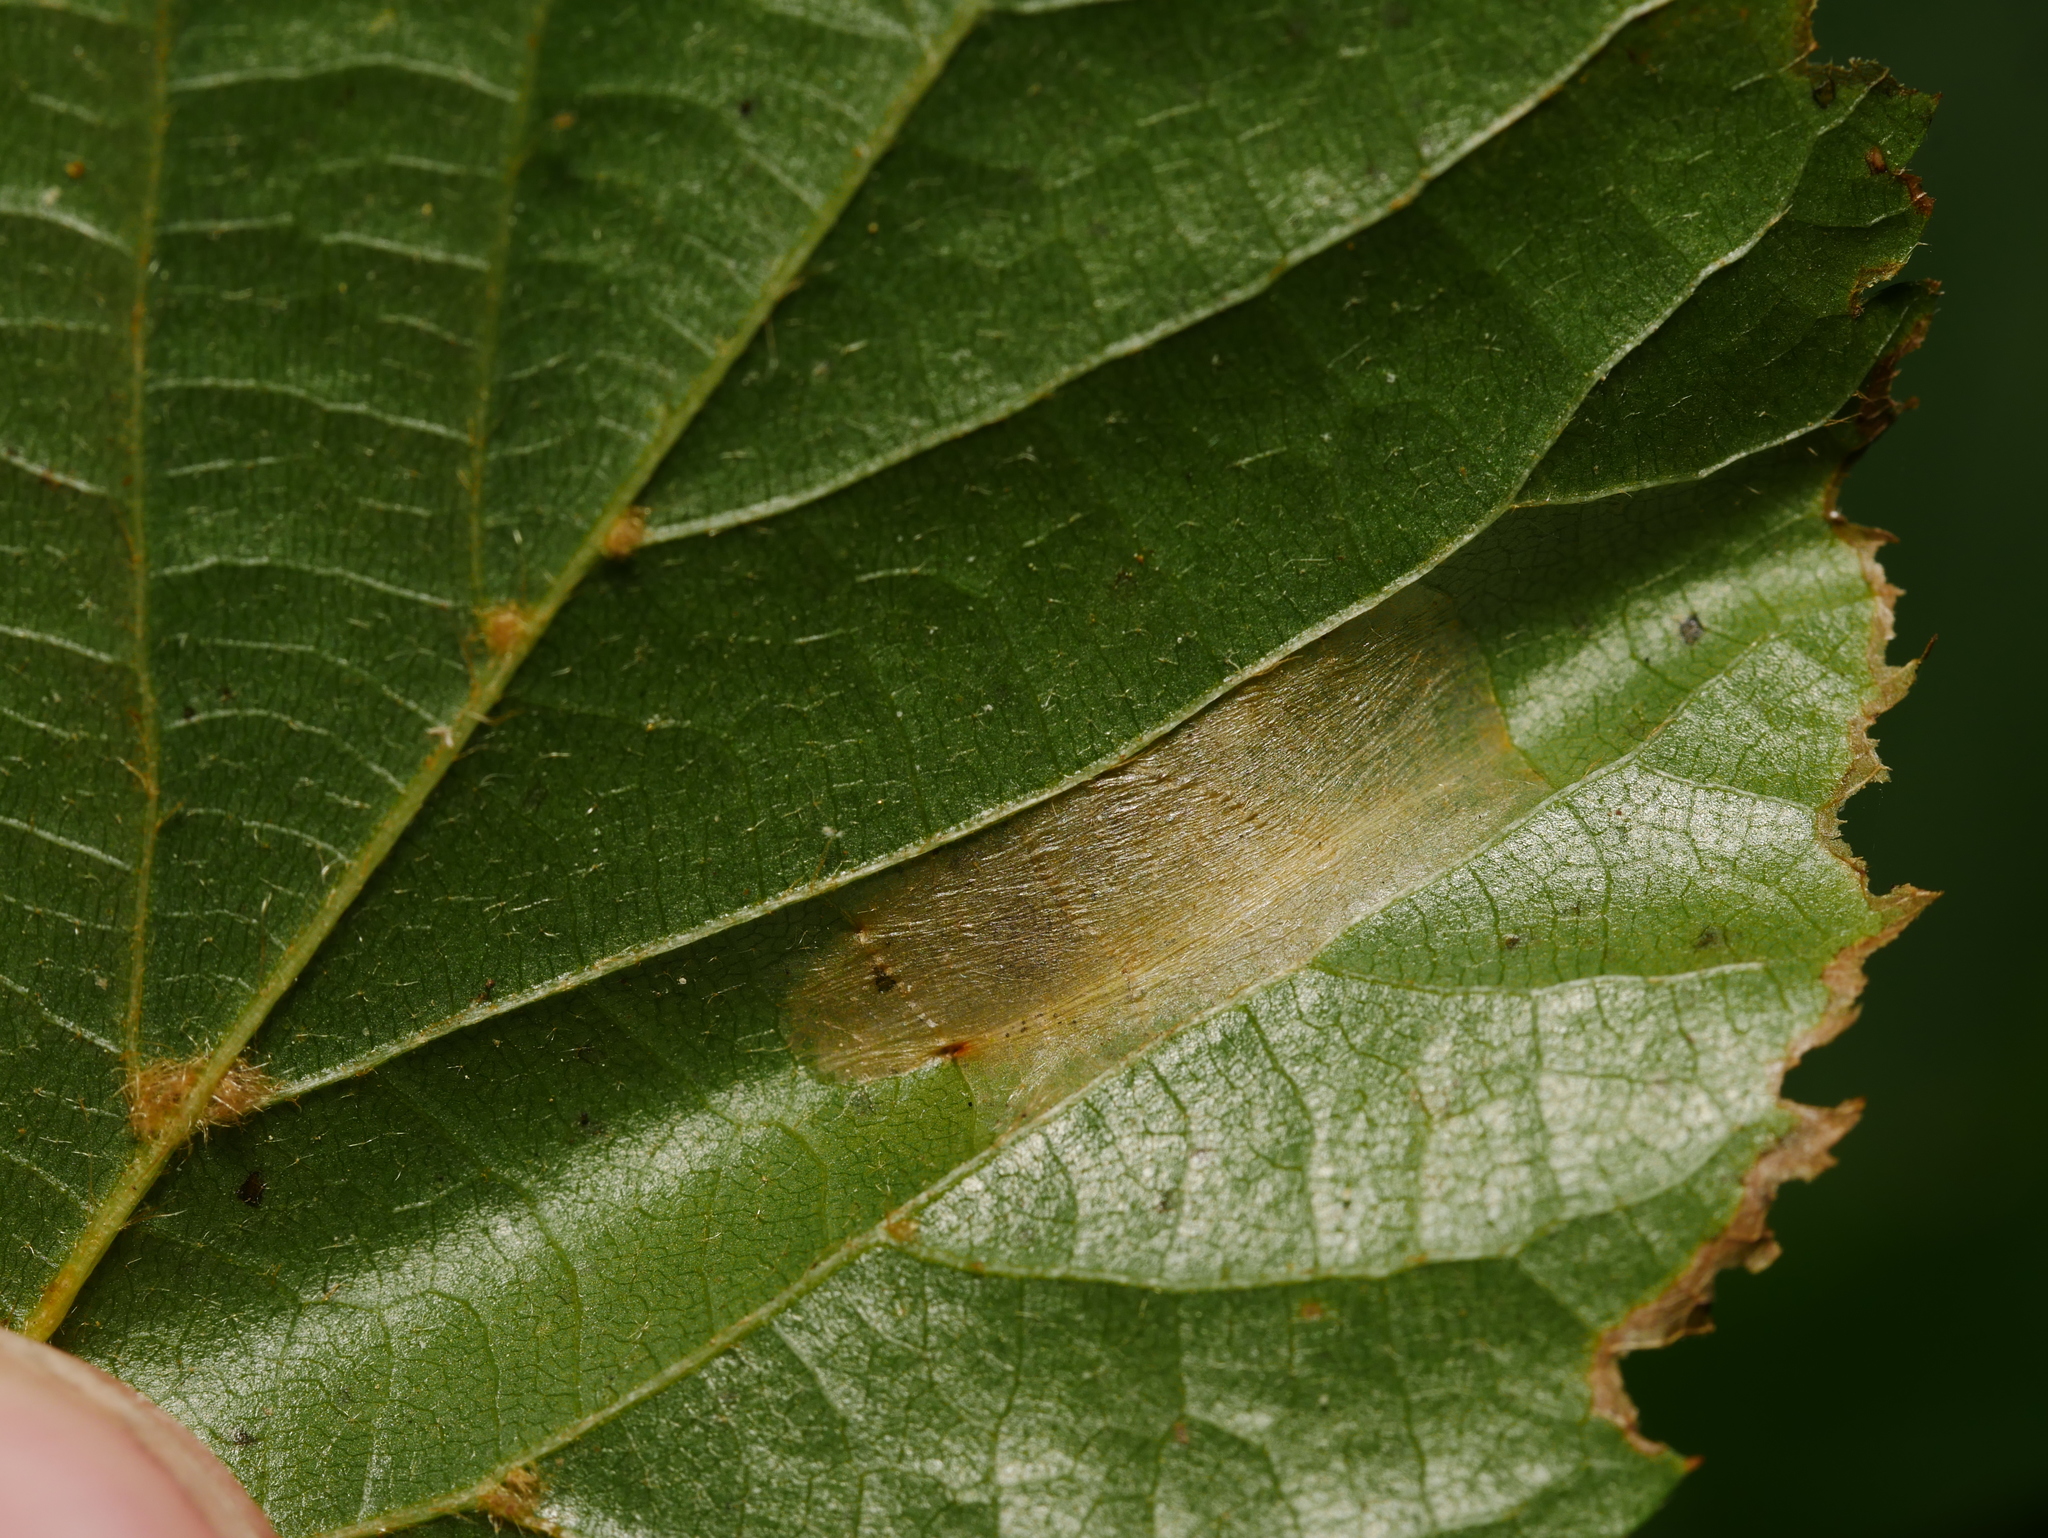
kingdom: Animalia
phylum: Arthropoda
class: Insecta
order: Lepidoptera
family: Gracillariidae
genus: Phyllonorycter
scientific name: Phyllonorycter issikii
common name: Linden midget
